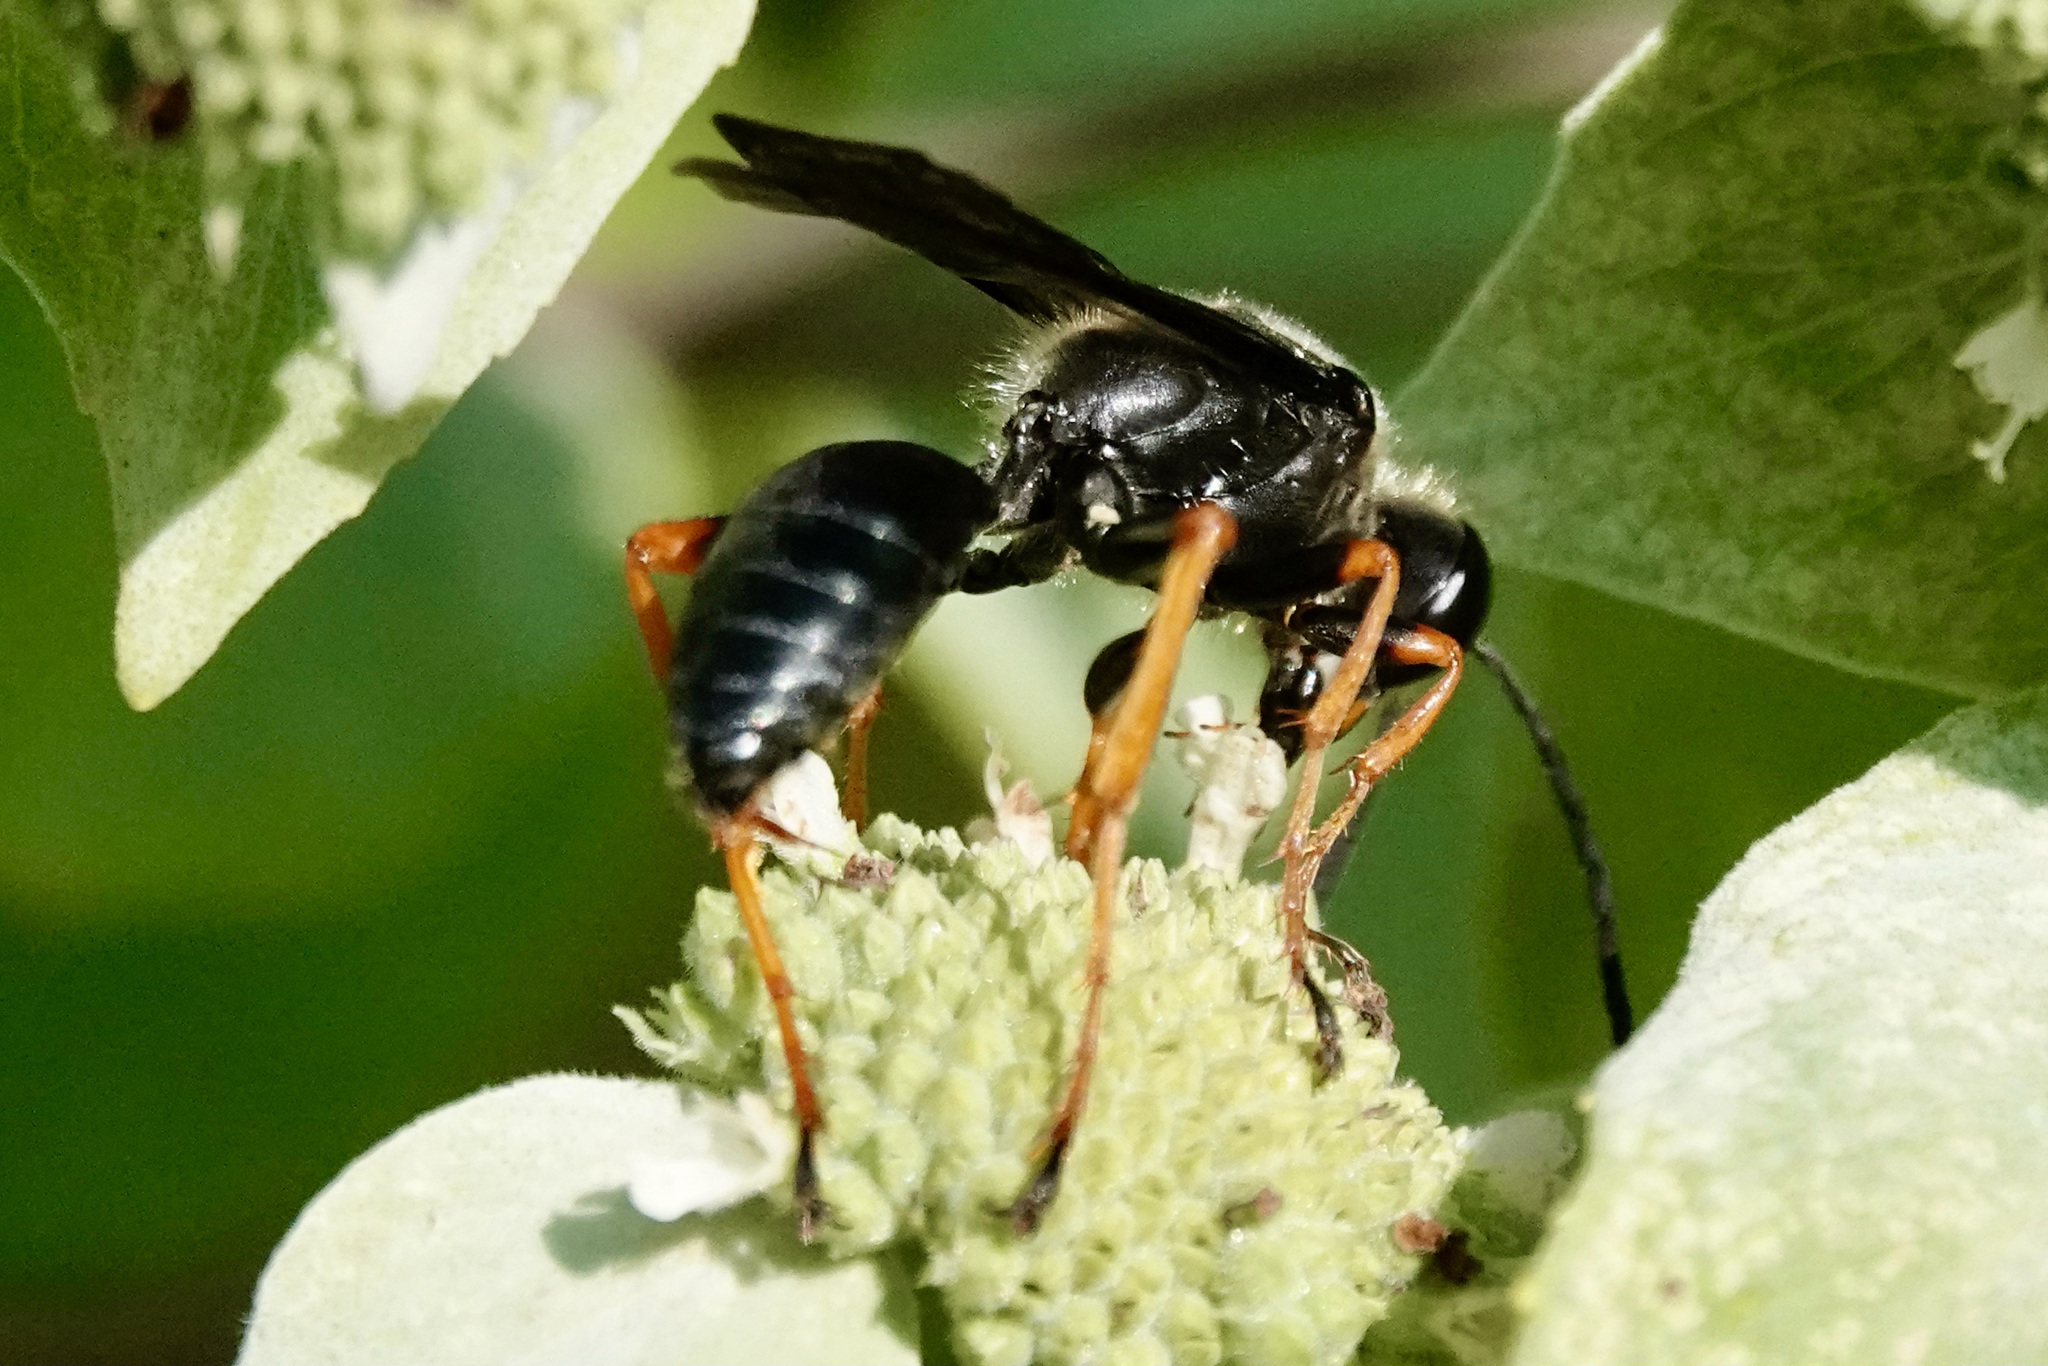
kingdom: Animalia
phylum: Arthropoda
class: Insecta
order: Hymenoptera
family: Sphecidae
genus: Sphex
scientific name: Sphex nudus
